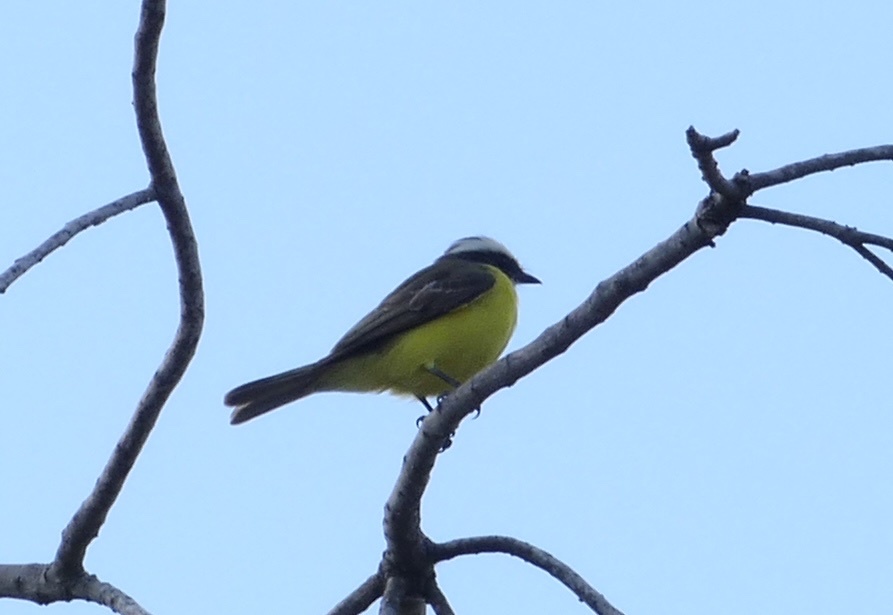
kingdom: Animalia
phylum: Chordata
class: Aves
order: Passeriformes
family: Tyrannidae
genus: Myiozetetes
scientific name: Myiozetetes similis
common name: Social flycatcher
